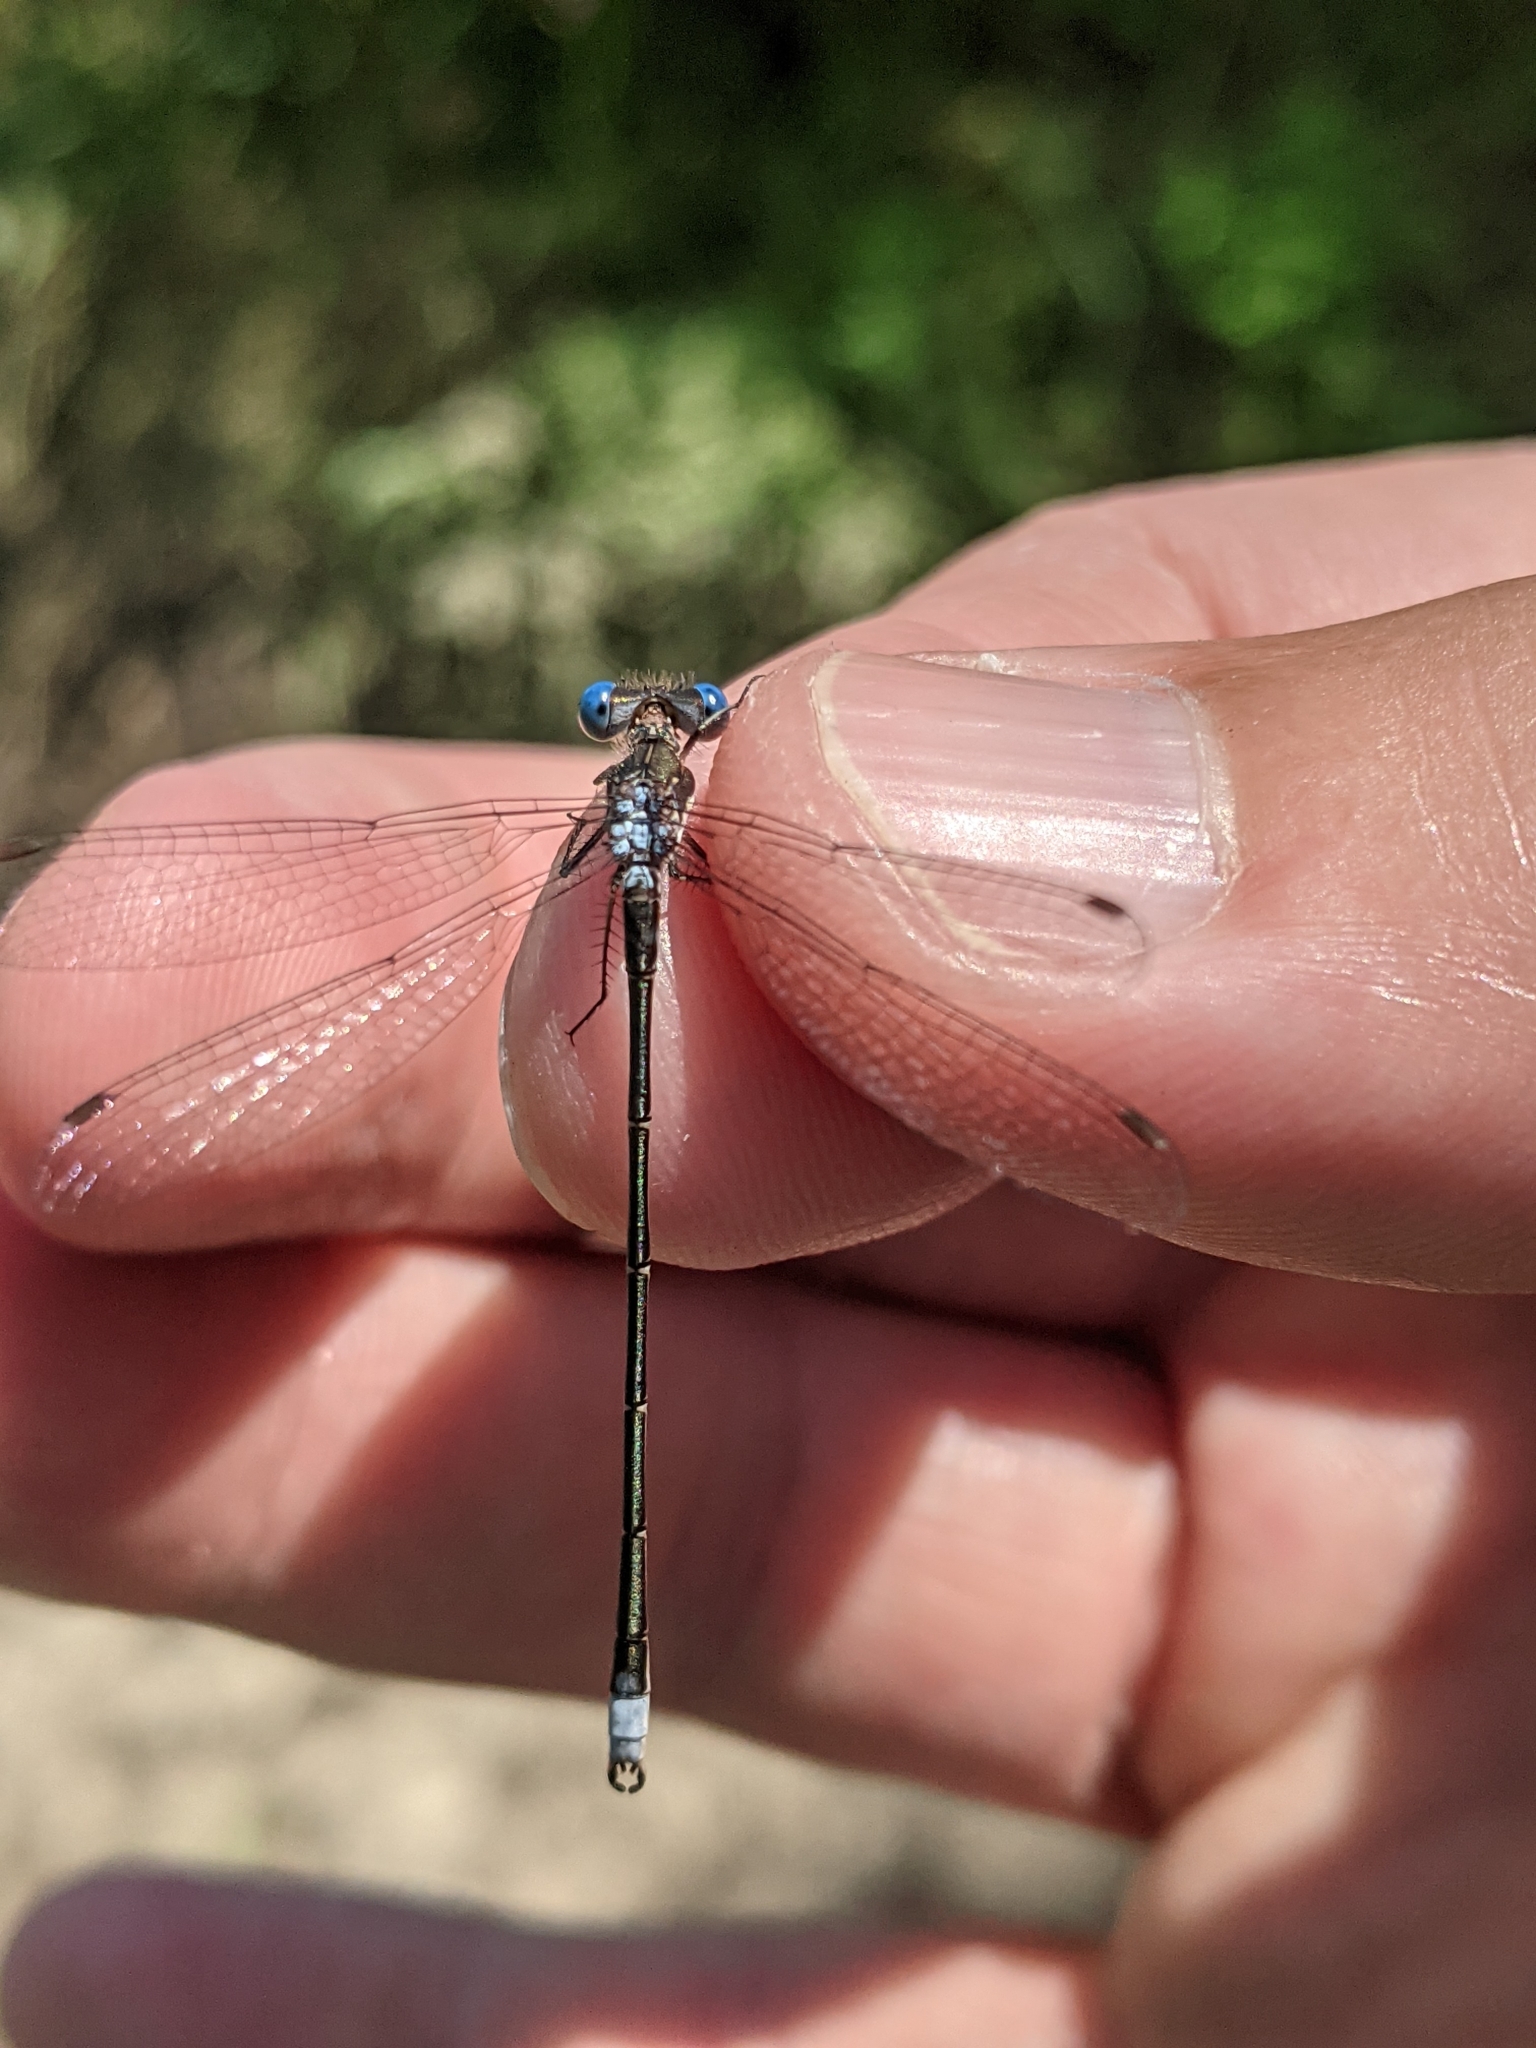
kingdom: Animalia
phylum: Arthropoda
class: Insecta
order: Odonata
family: Lestidae
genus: Lestes
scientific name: Lestes congener
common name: Spotted spreadwing
